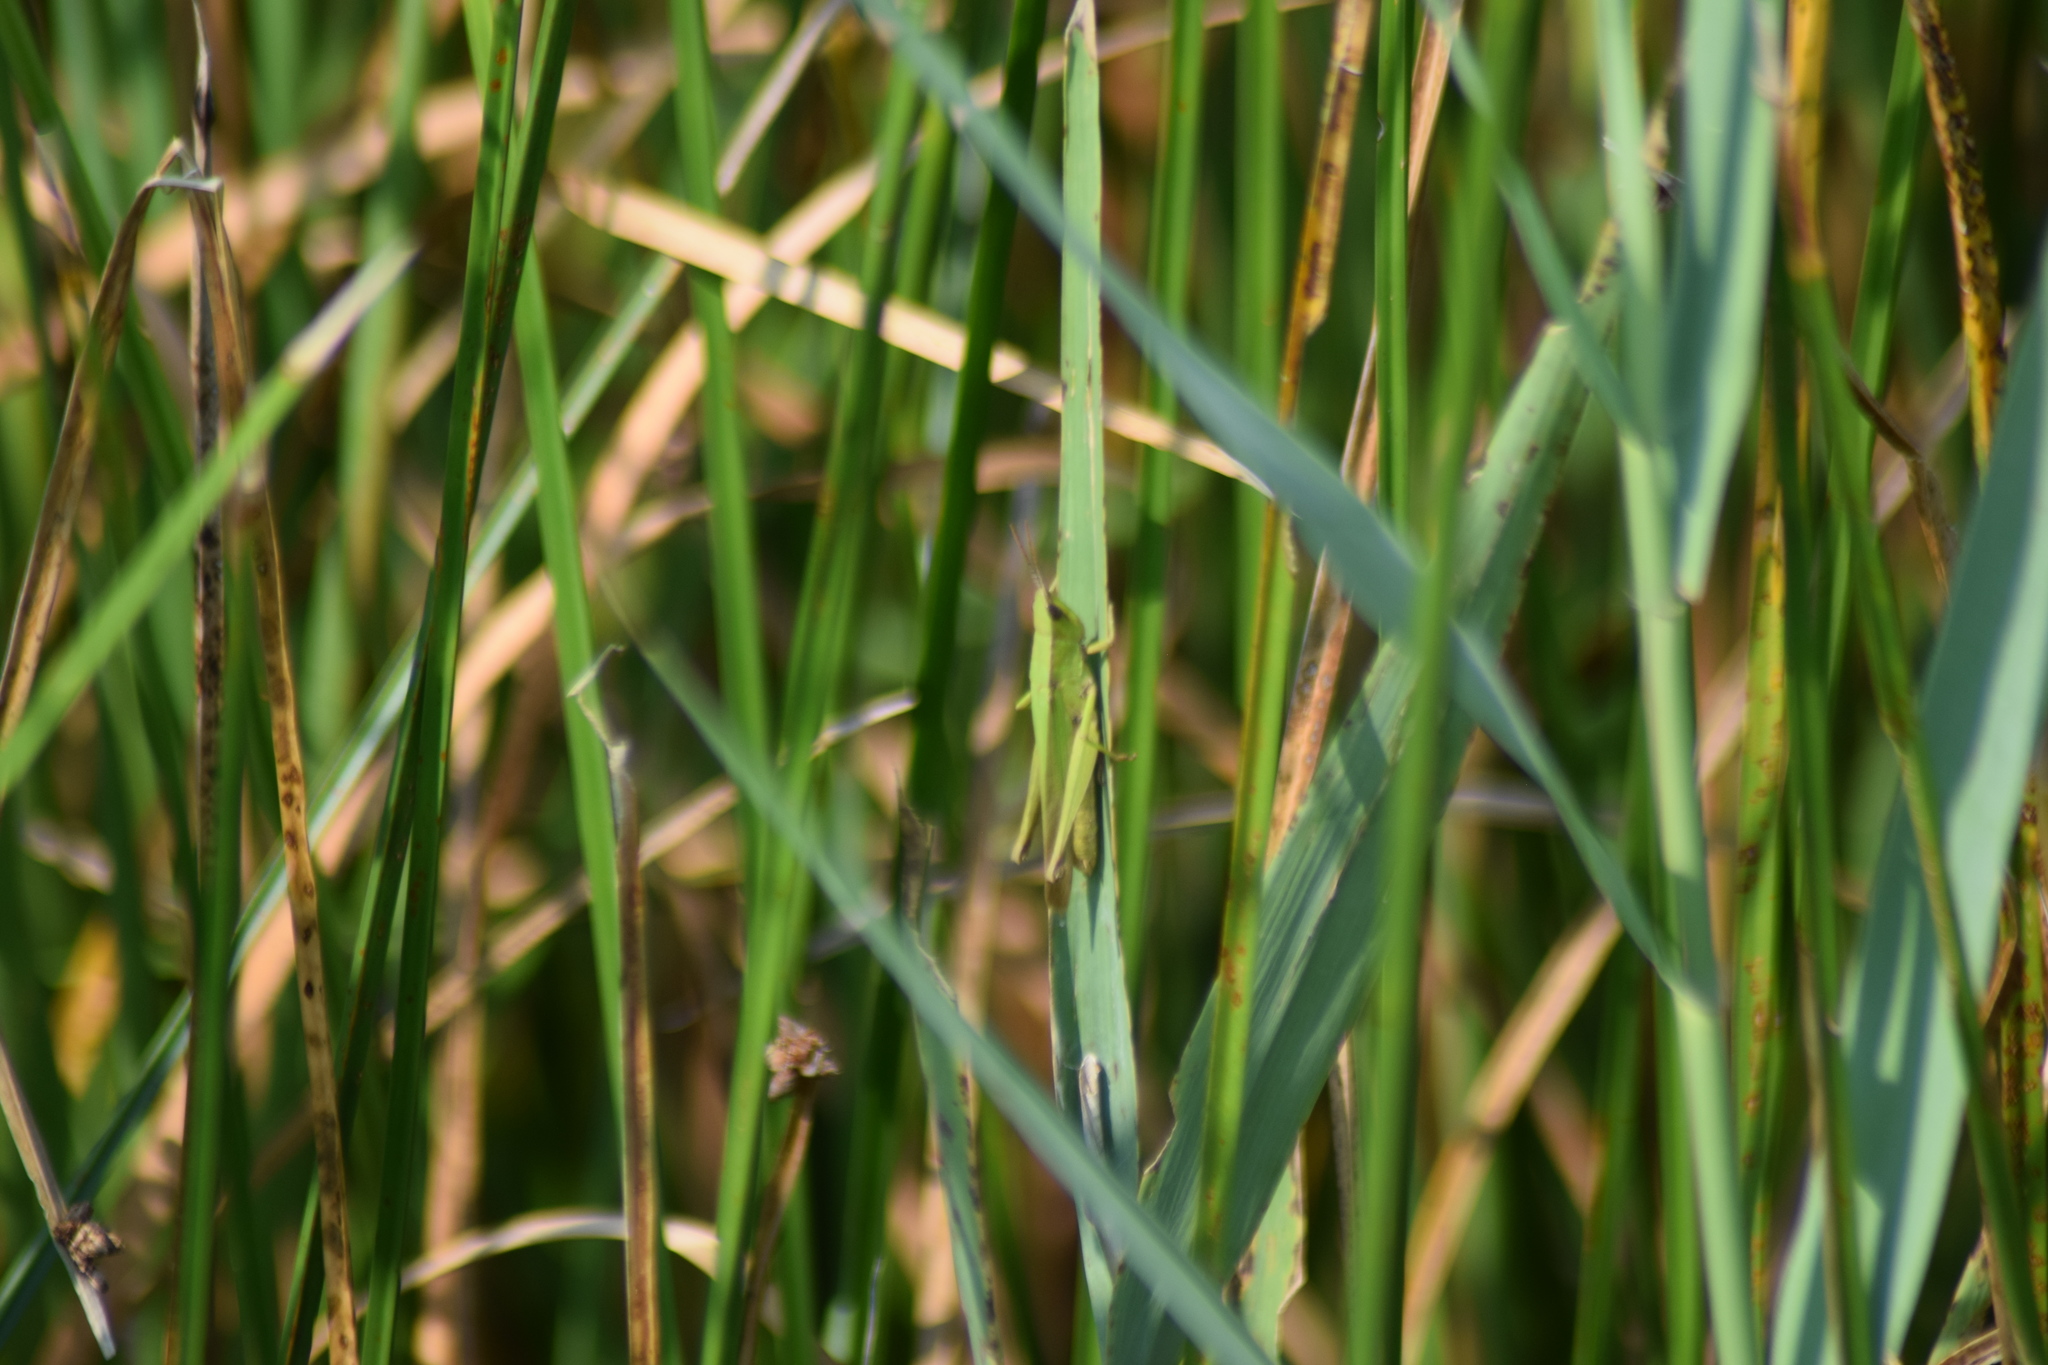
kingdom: Animalia
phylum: Arthropoda
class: Insecta
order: Orthoptera
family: Acrididae
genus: Metaleptea
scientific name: Metaleptea brevicornis
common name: Clipped-wing grasshopper
